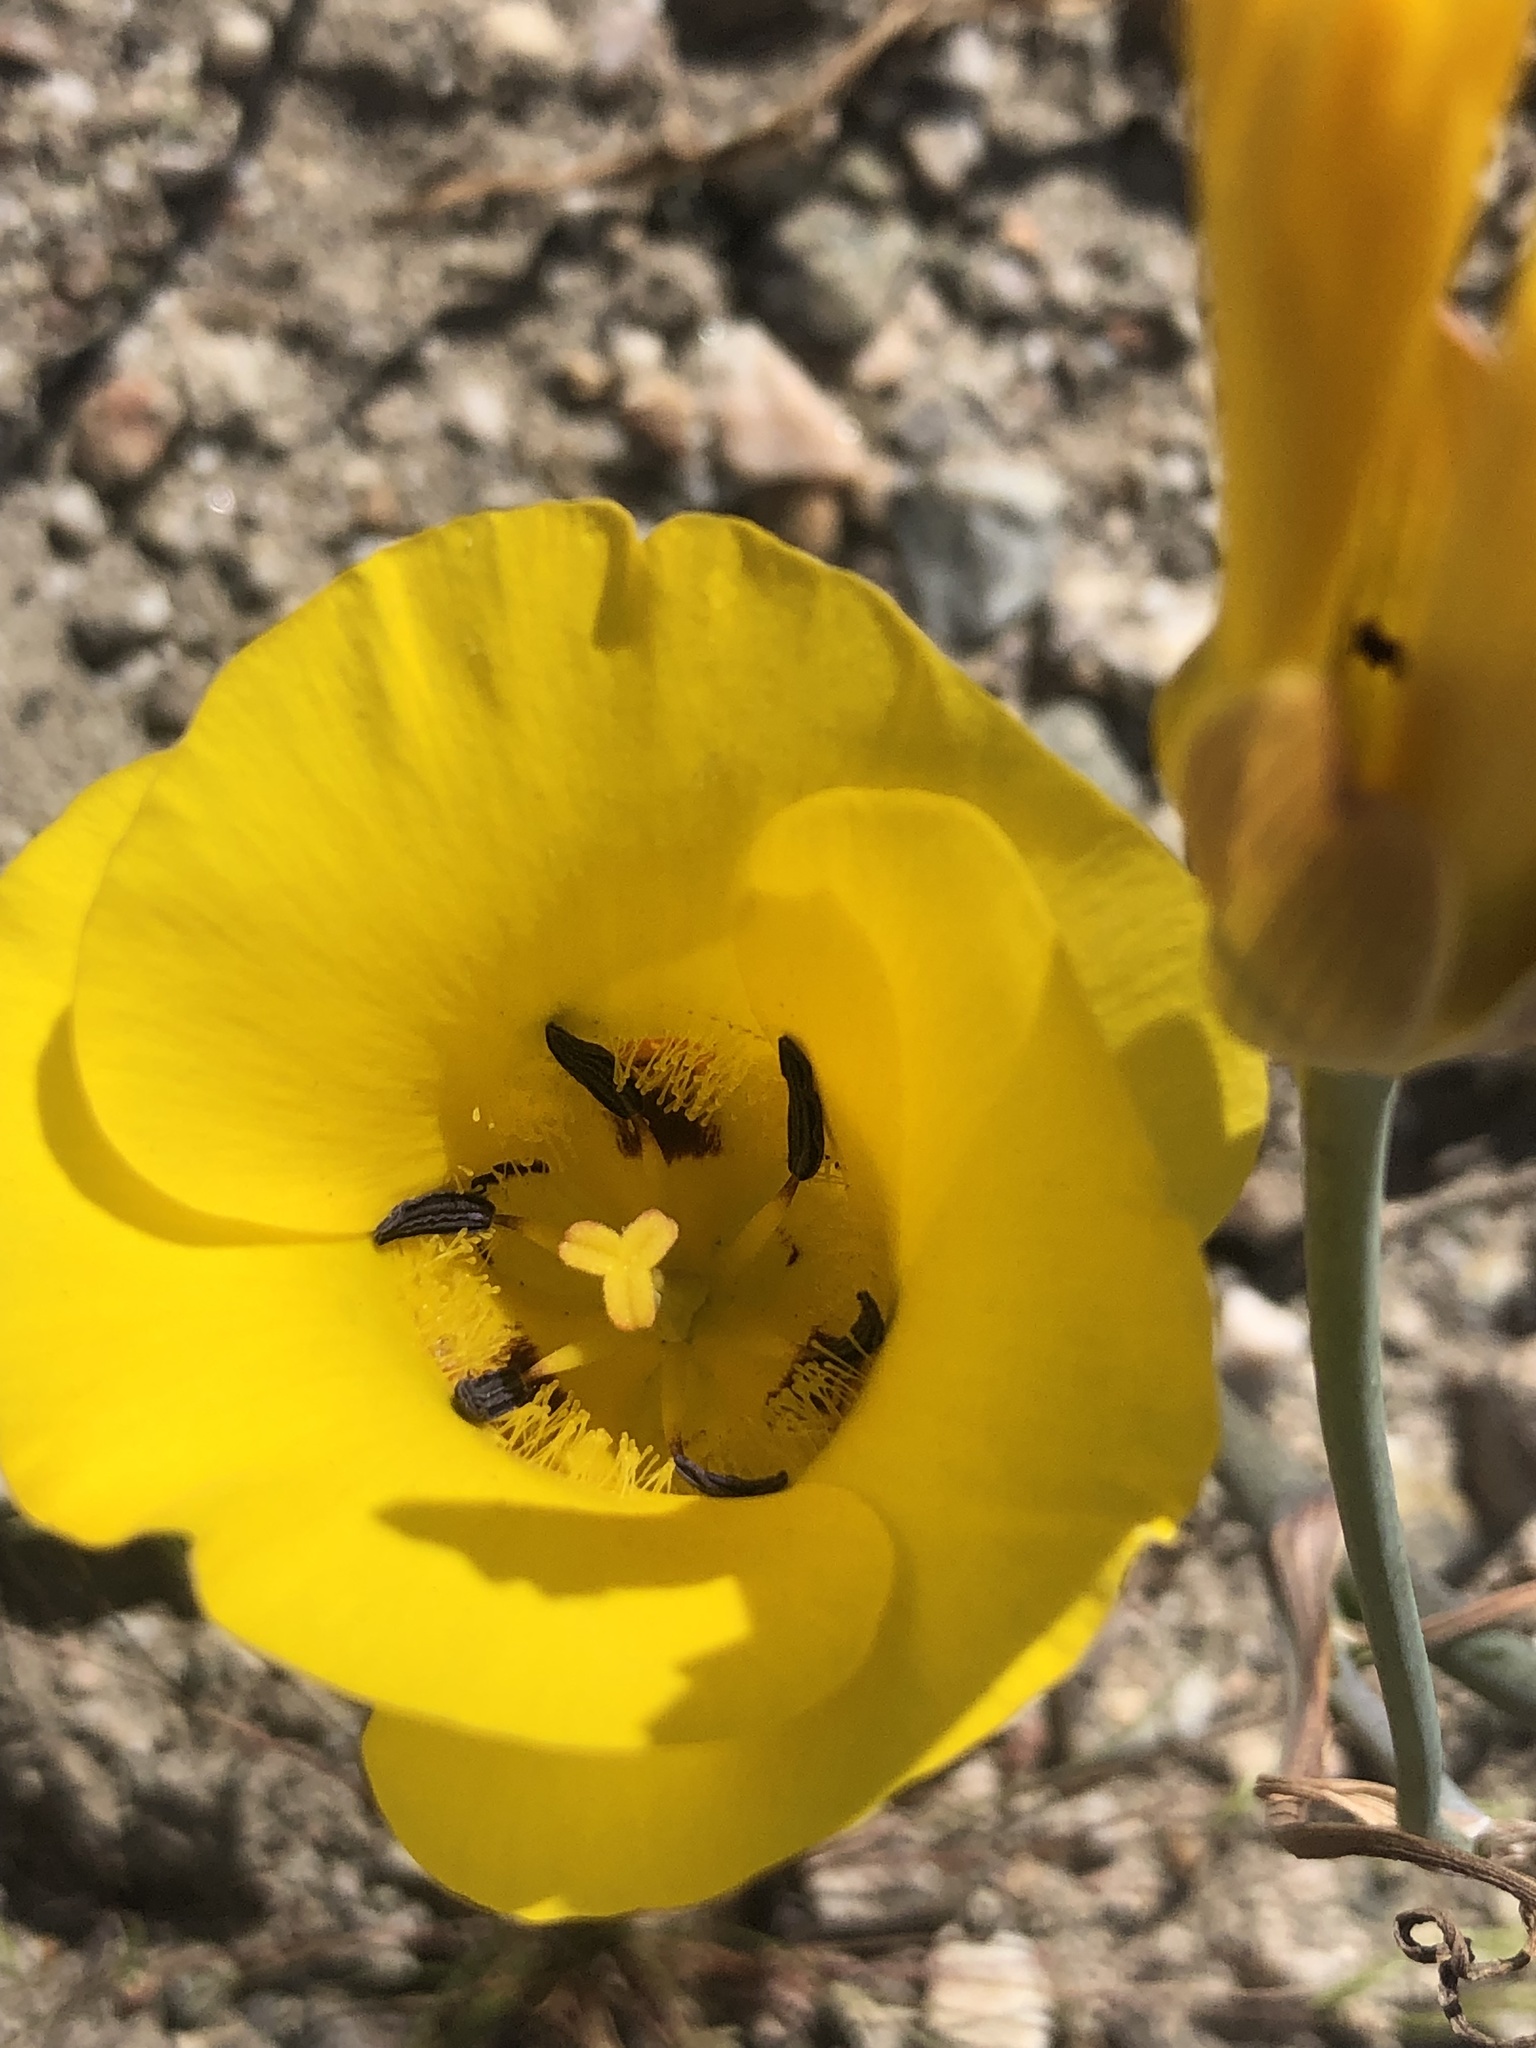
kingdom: Plantae
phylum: Tracheophyta
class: Liliopsida
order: Liliales
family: Liliaceae
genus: Calochortus
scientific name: Calochortus clavatus
